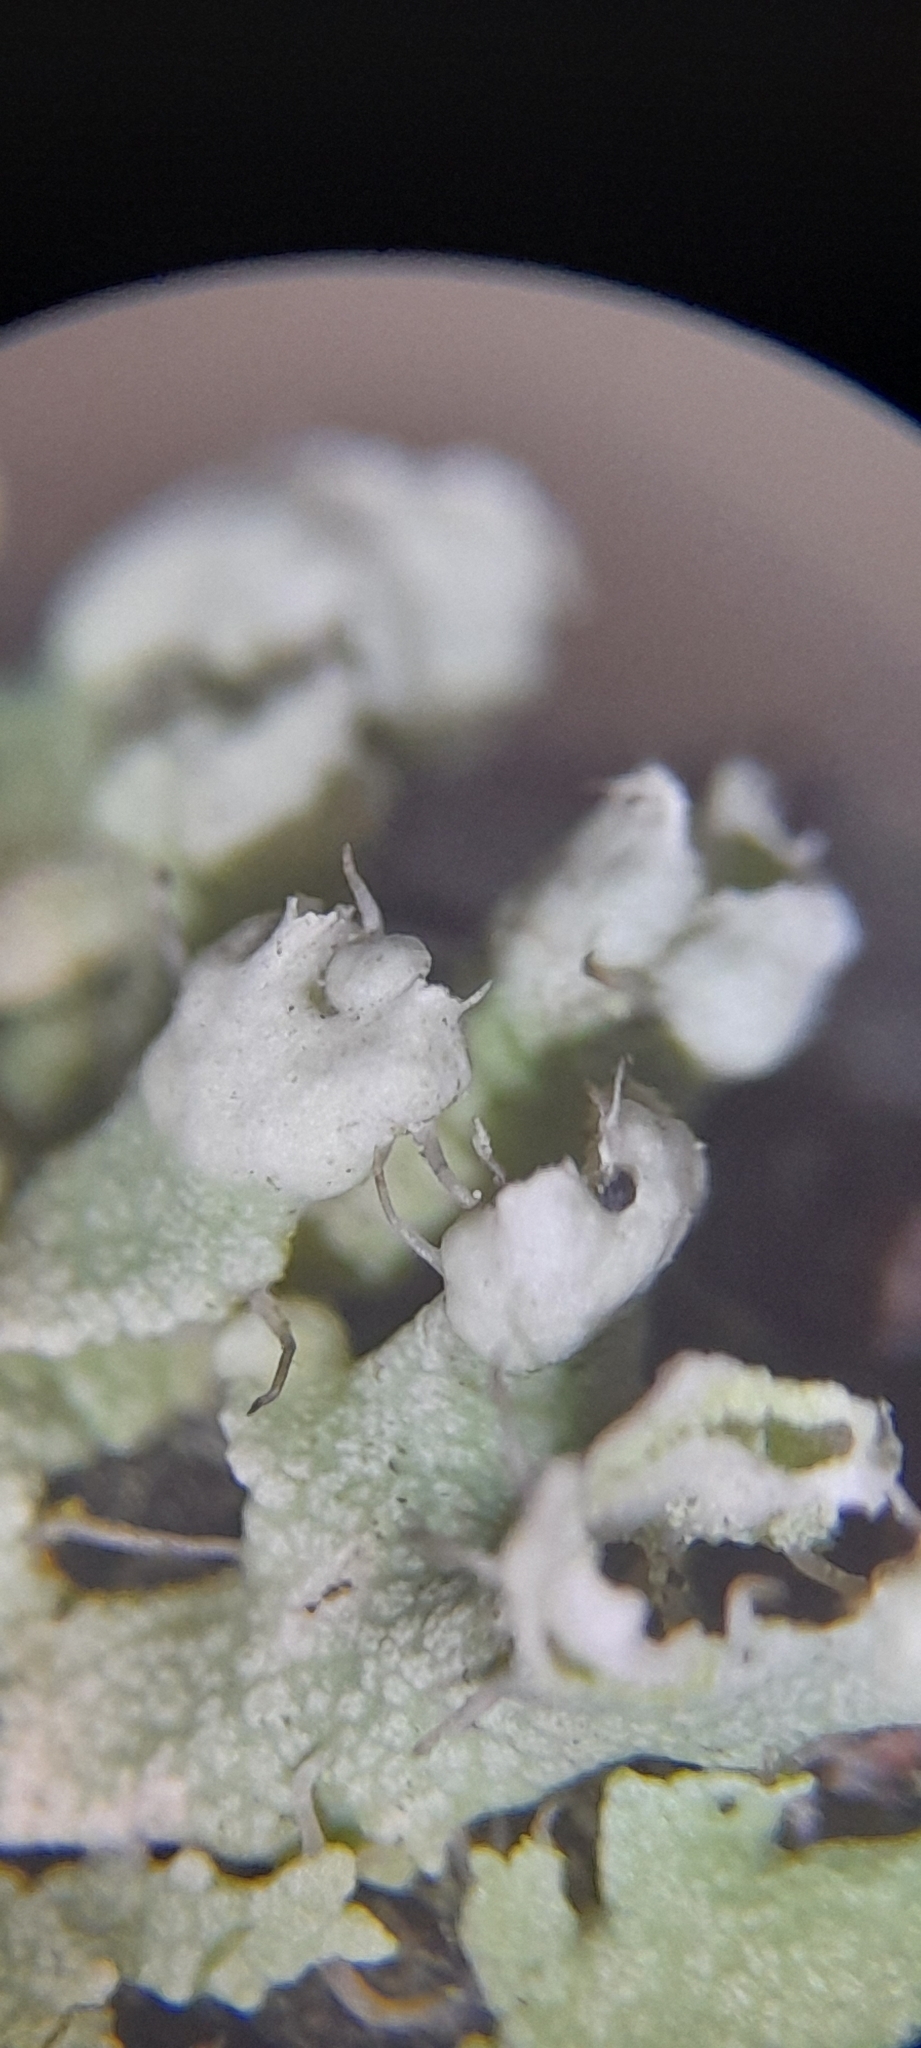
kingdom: Fungi
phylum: Ascomycota
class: Lecanoromycetes
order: Caliciales
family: Physciaceae
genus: Physcia
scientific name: Physcia adscendens
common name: Hooded rosette lichen
